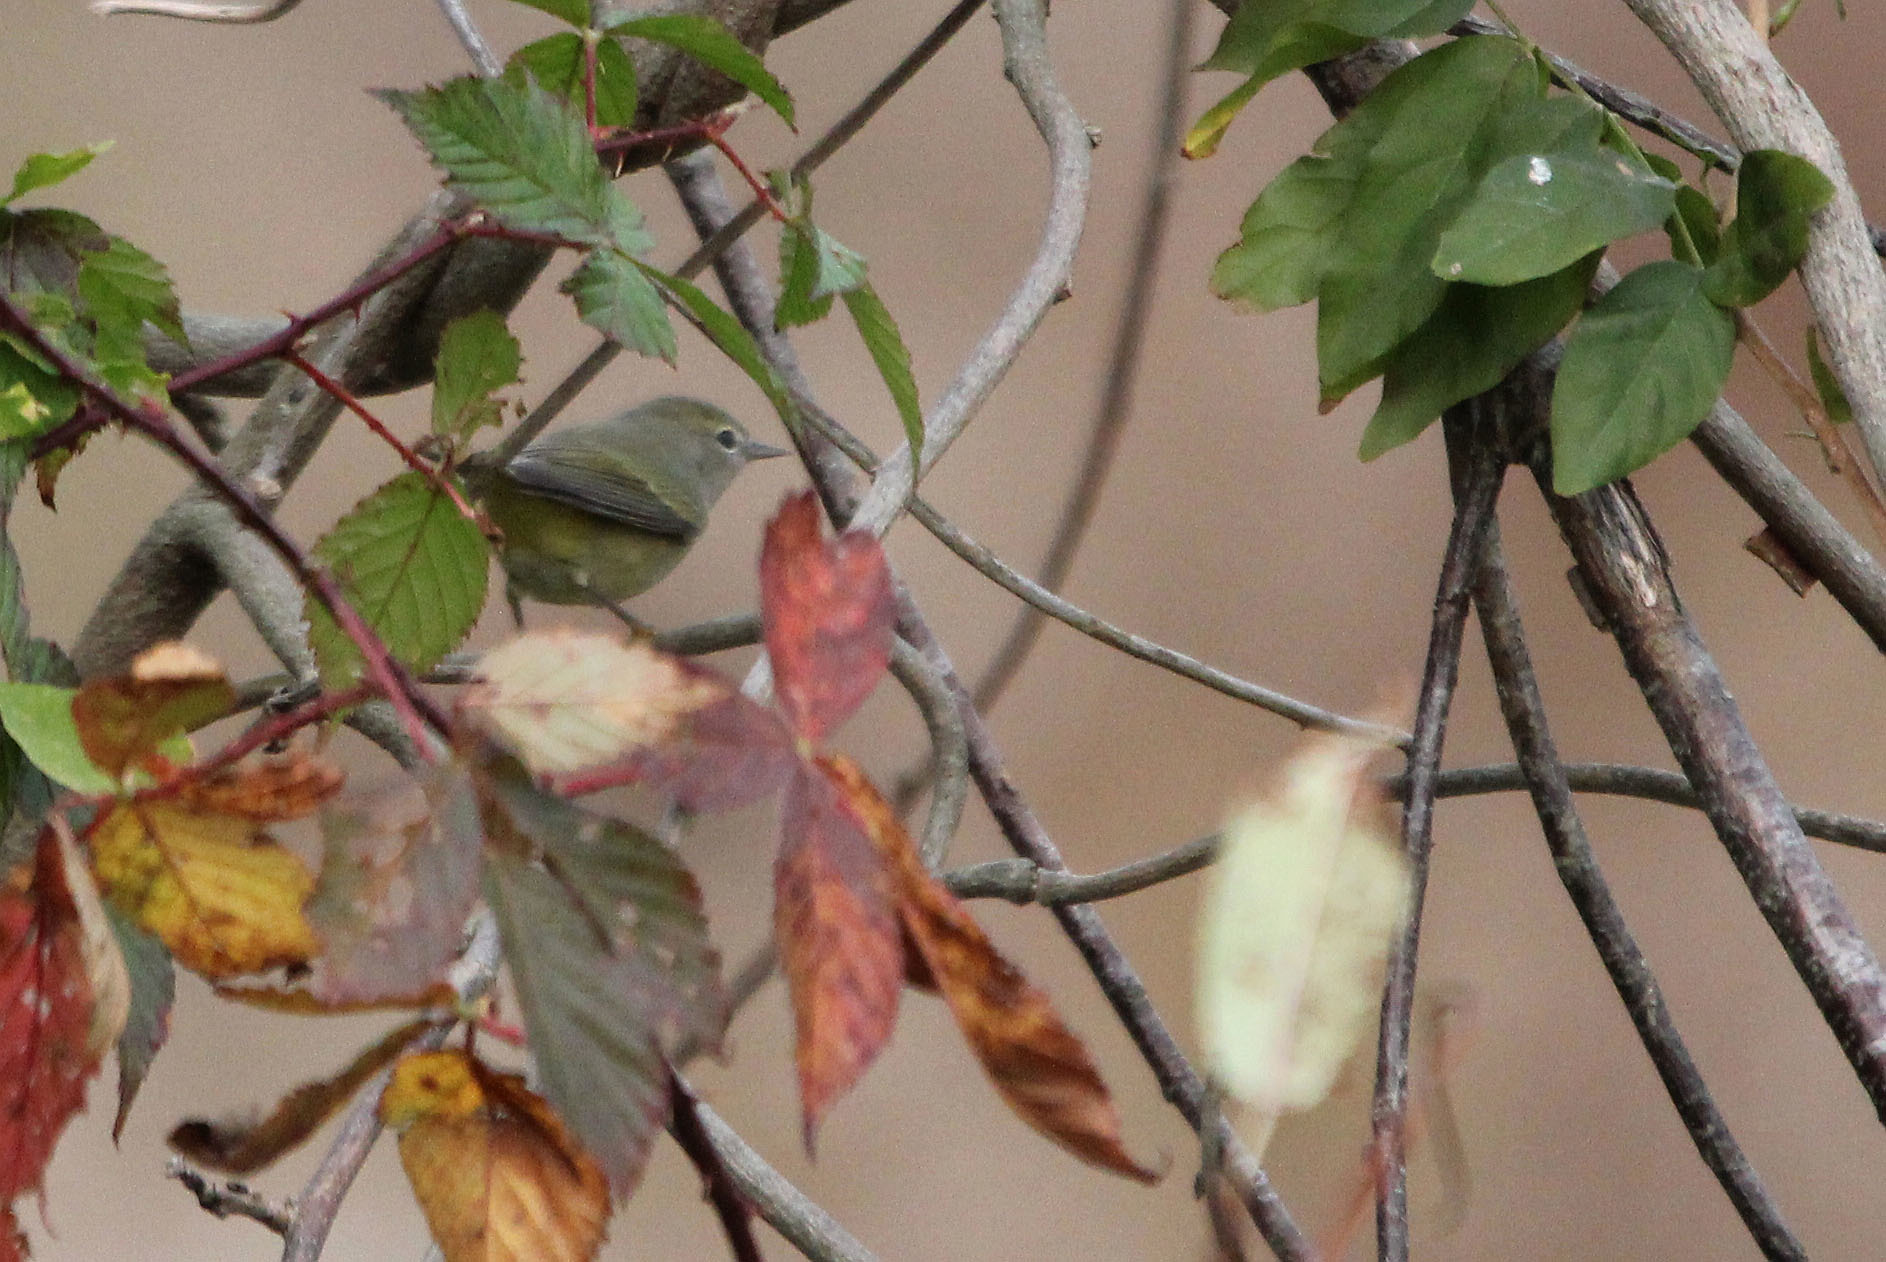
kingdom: Animalia
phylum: Chordata
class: Aves
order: Passeriformes
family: Parulidae
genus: Leiothlypis
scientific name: Leiothlypis celata
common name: Orange-crowned warbler
